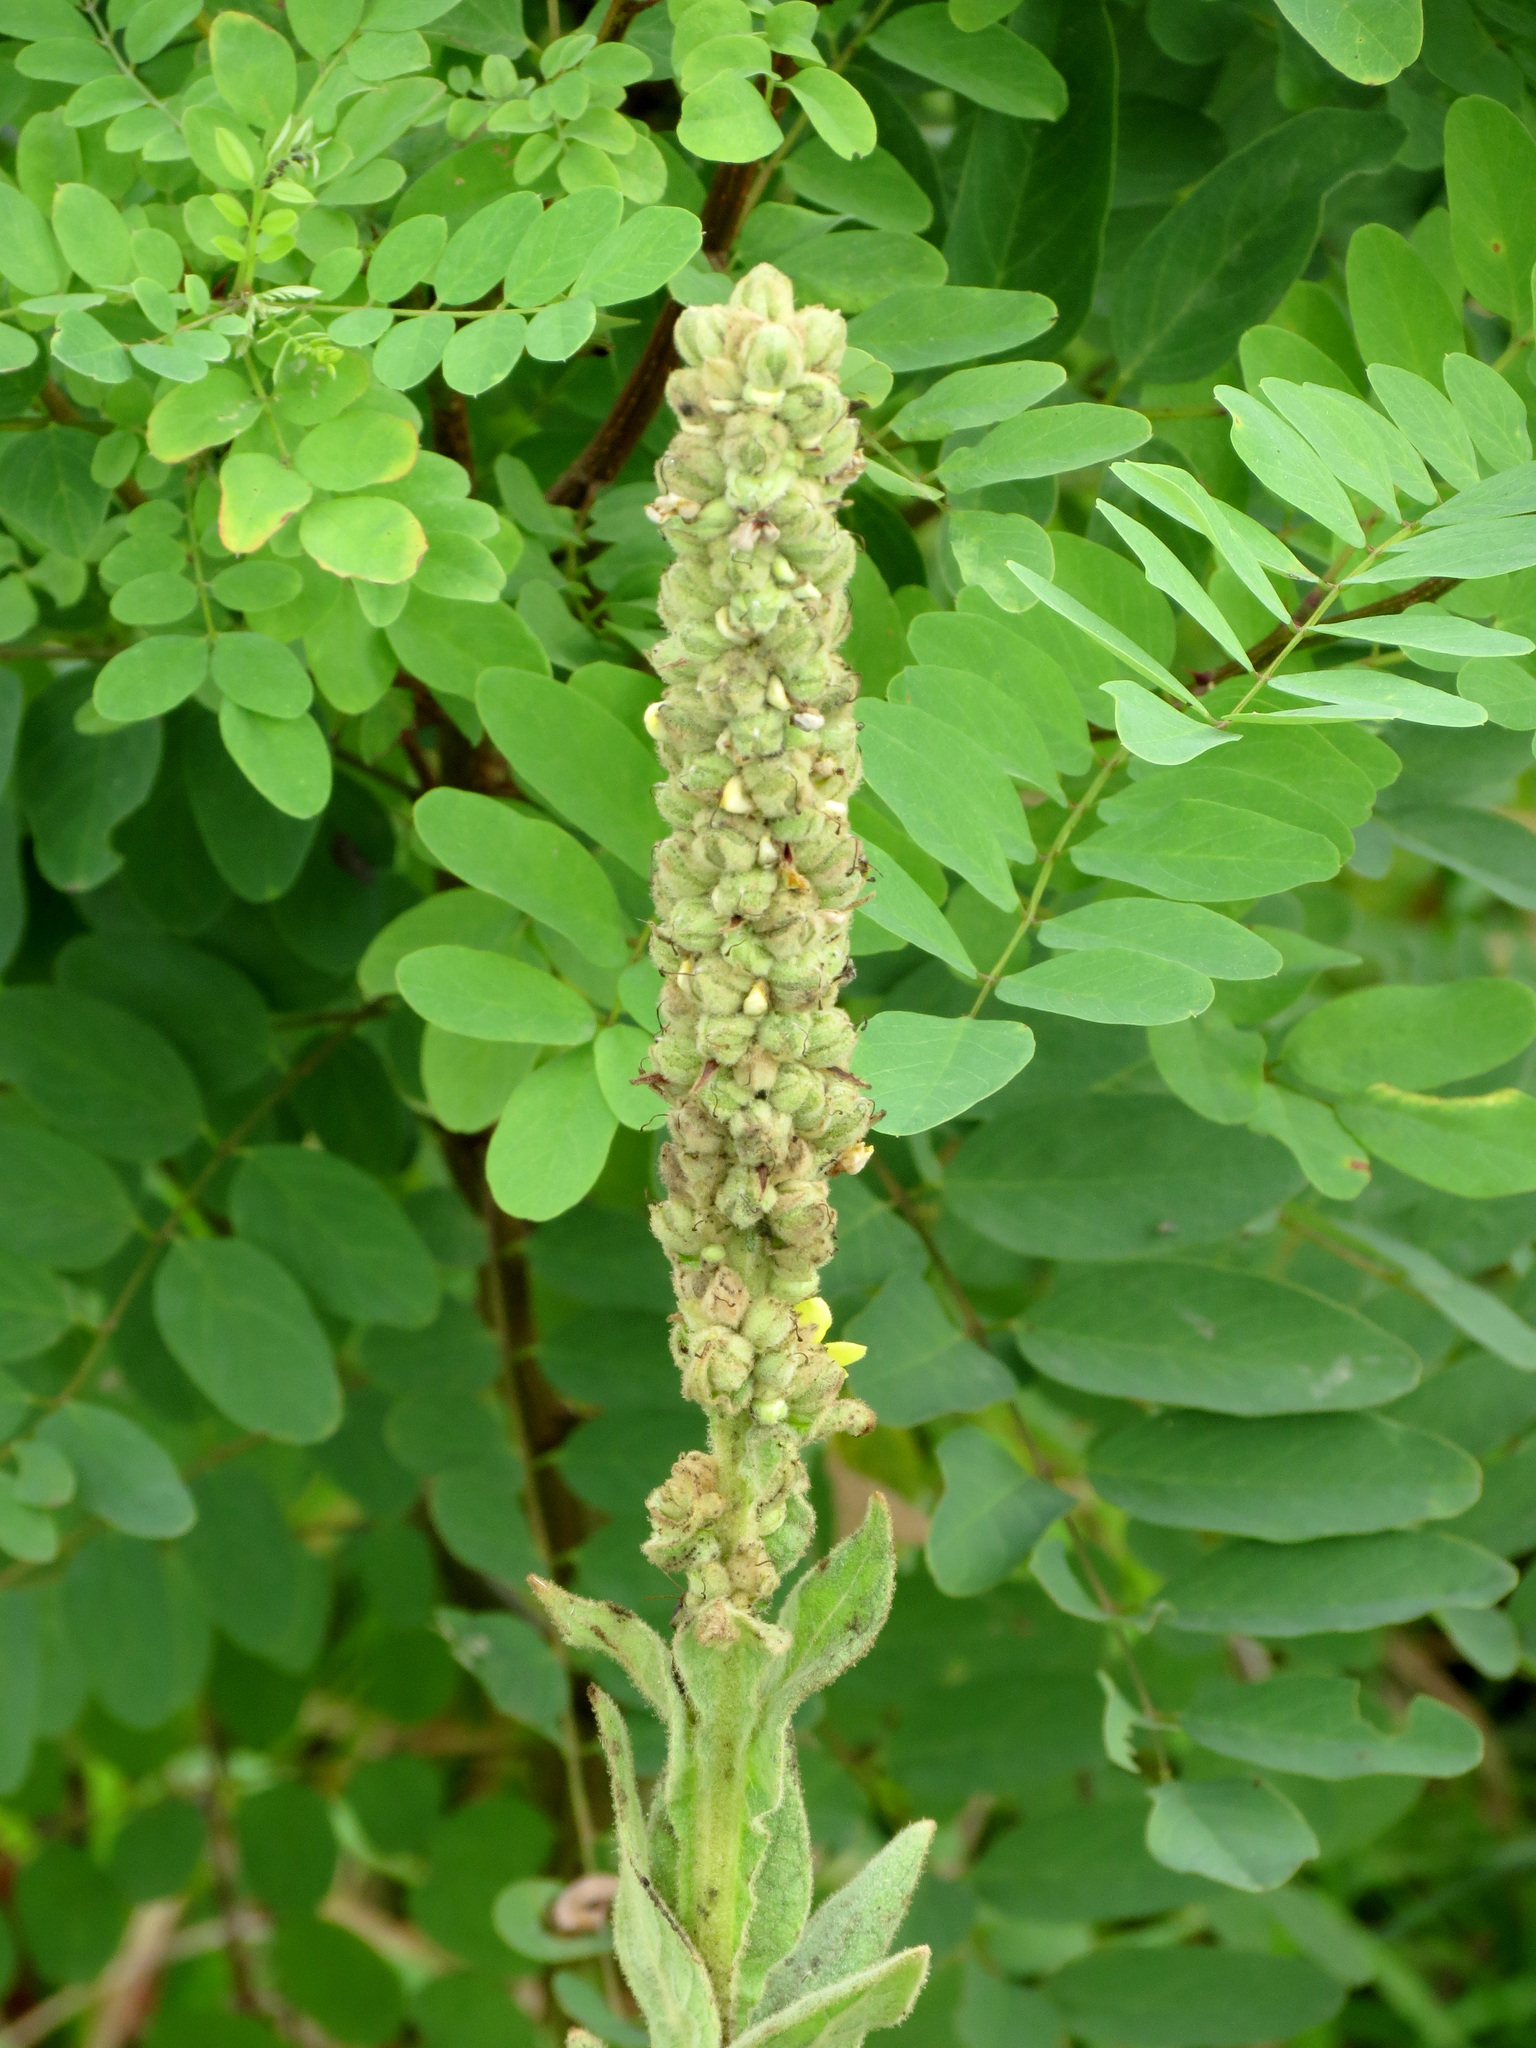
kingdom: Plantae
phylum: Tracheophyta
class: Magnoliopsida
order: Lamiales
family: Scrophulariaceae
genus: Verbascum
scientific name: Verbascum thapsus
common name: Common mullein
